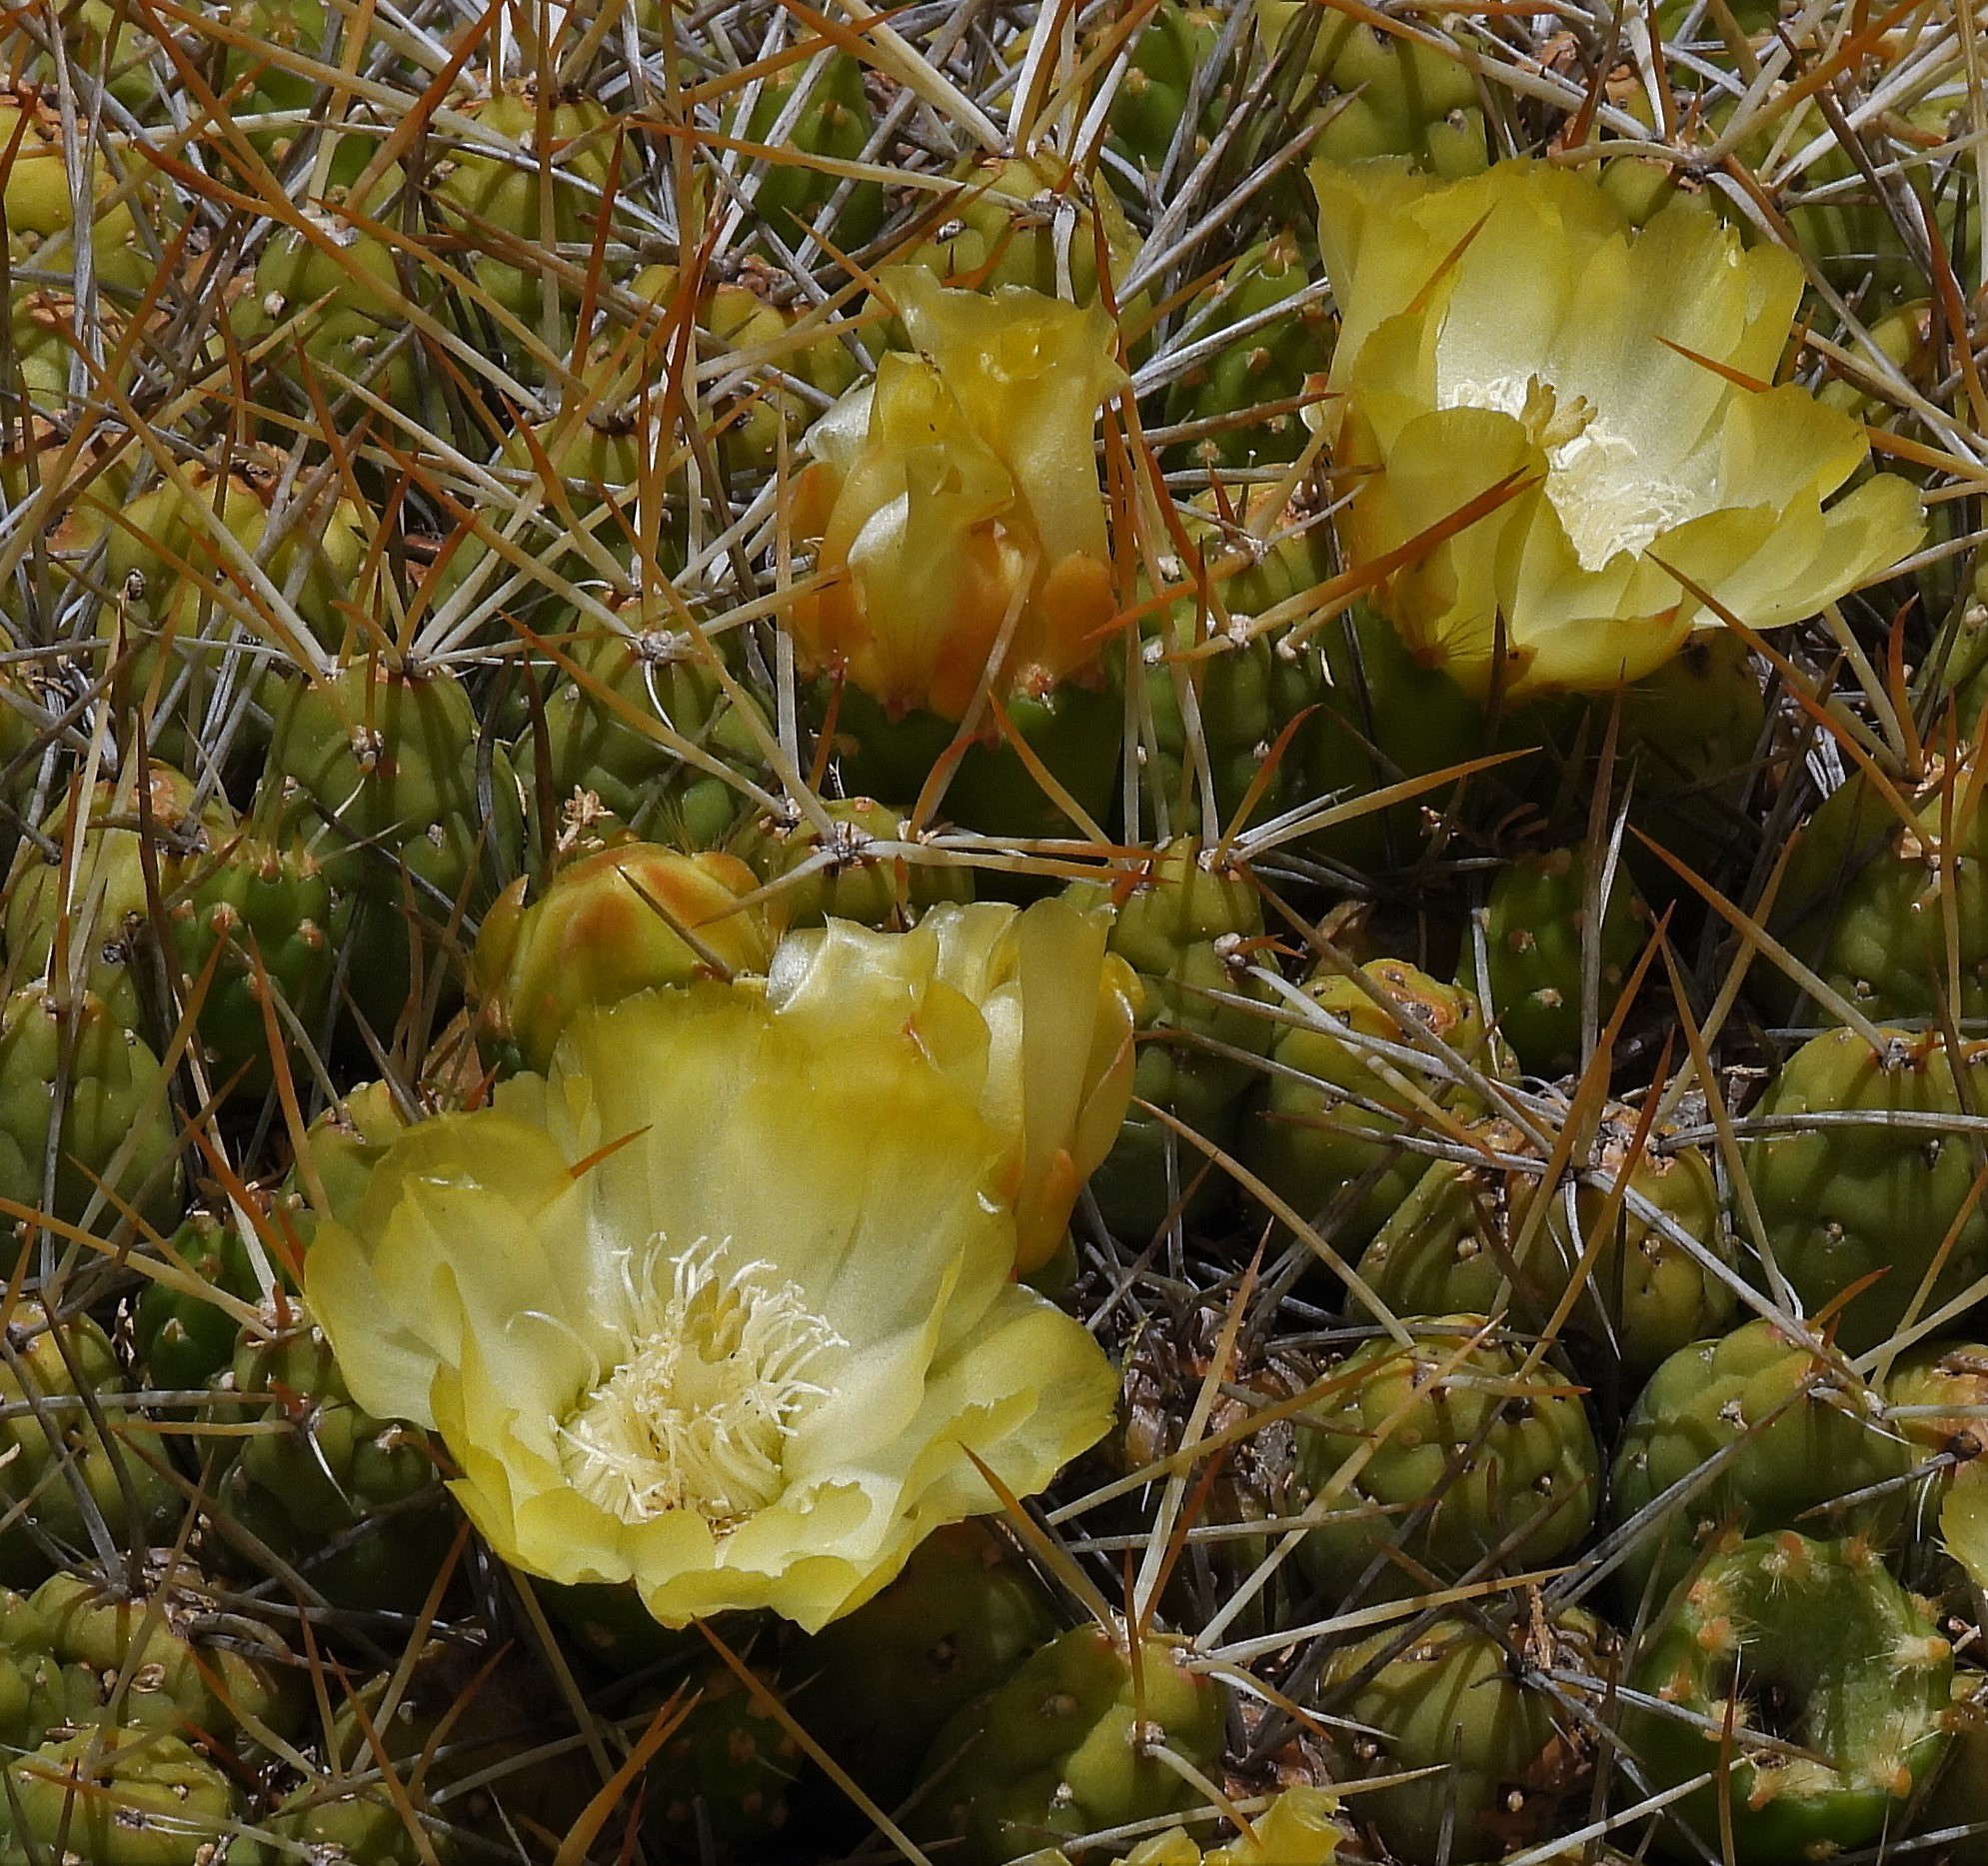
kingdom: Plantae
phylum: Tracheophyta
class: Magnoliopsida
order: Caryophyllales
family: Cactaceae
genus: Cumulopuntia
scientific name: Cumulopuntia boliviana
